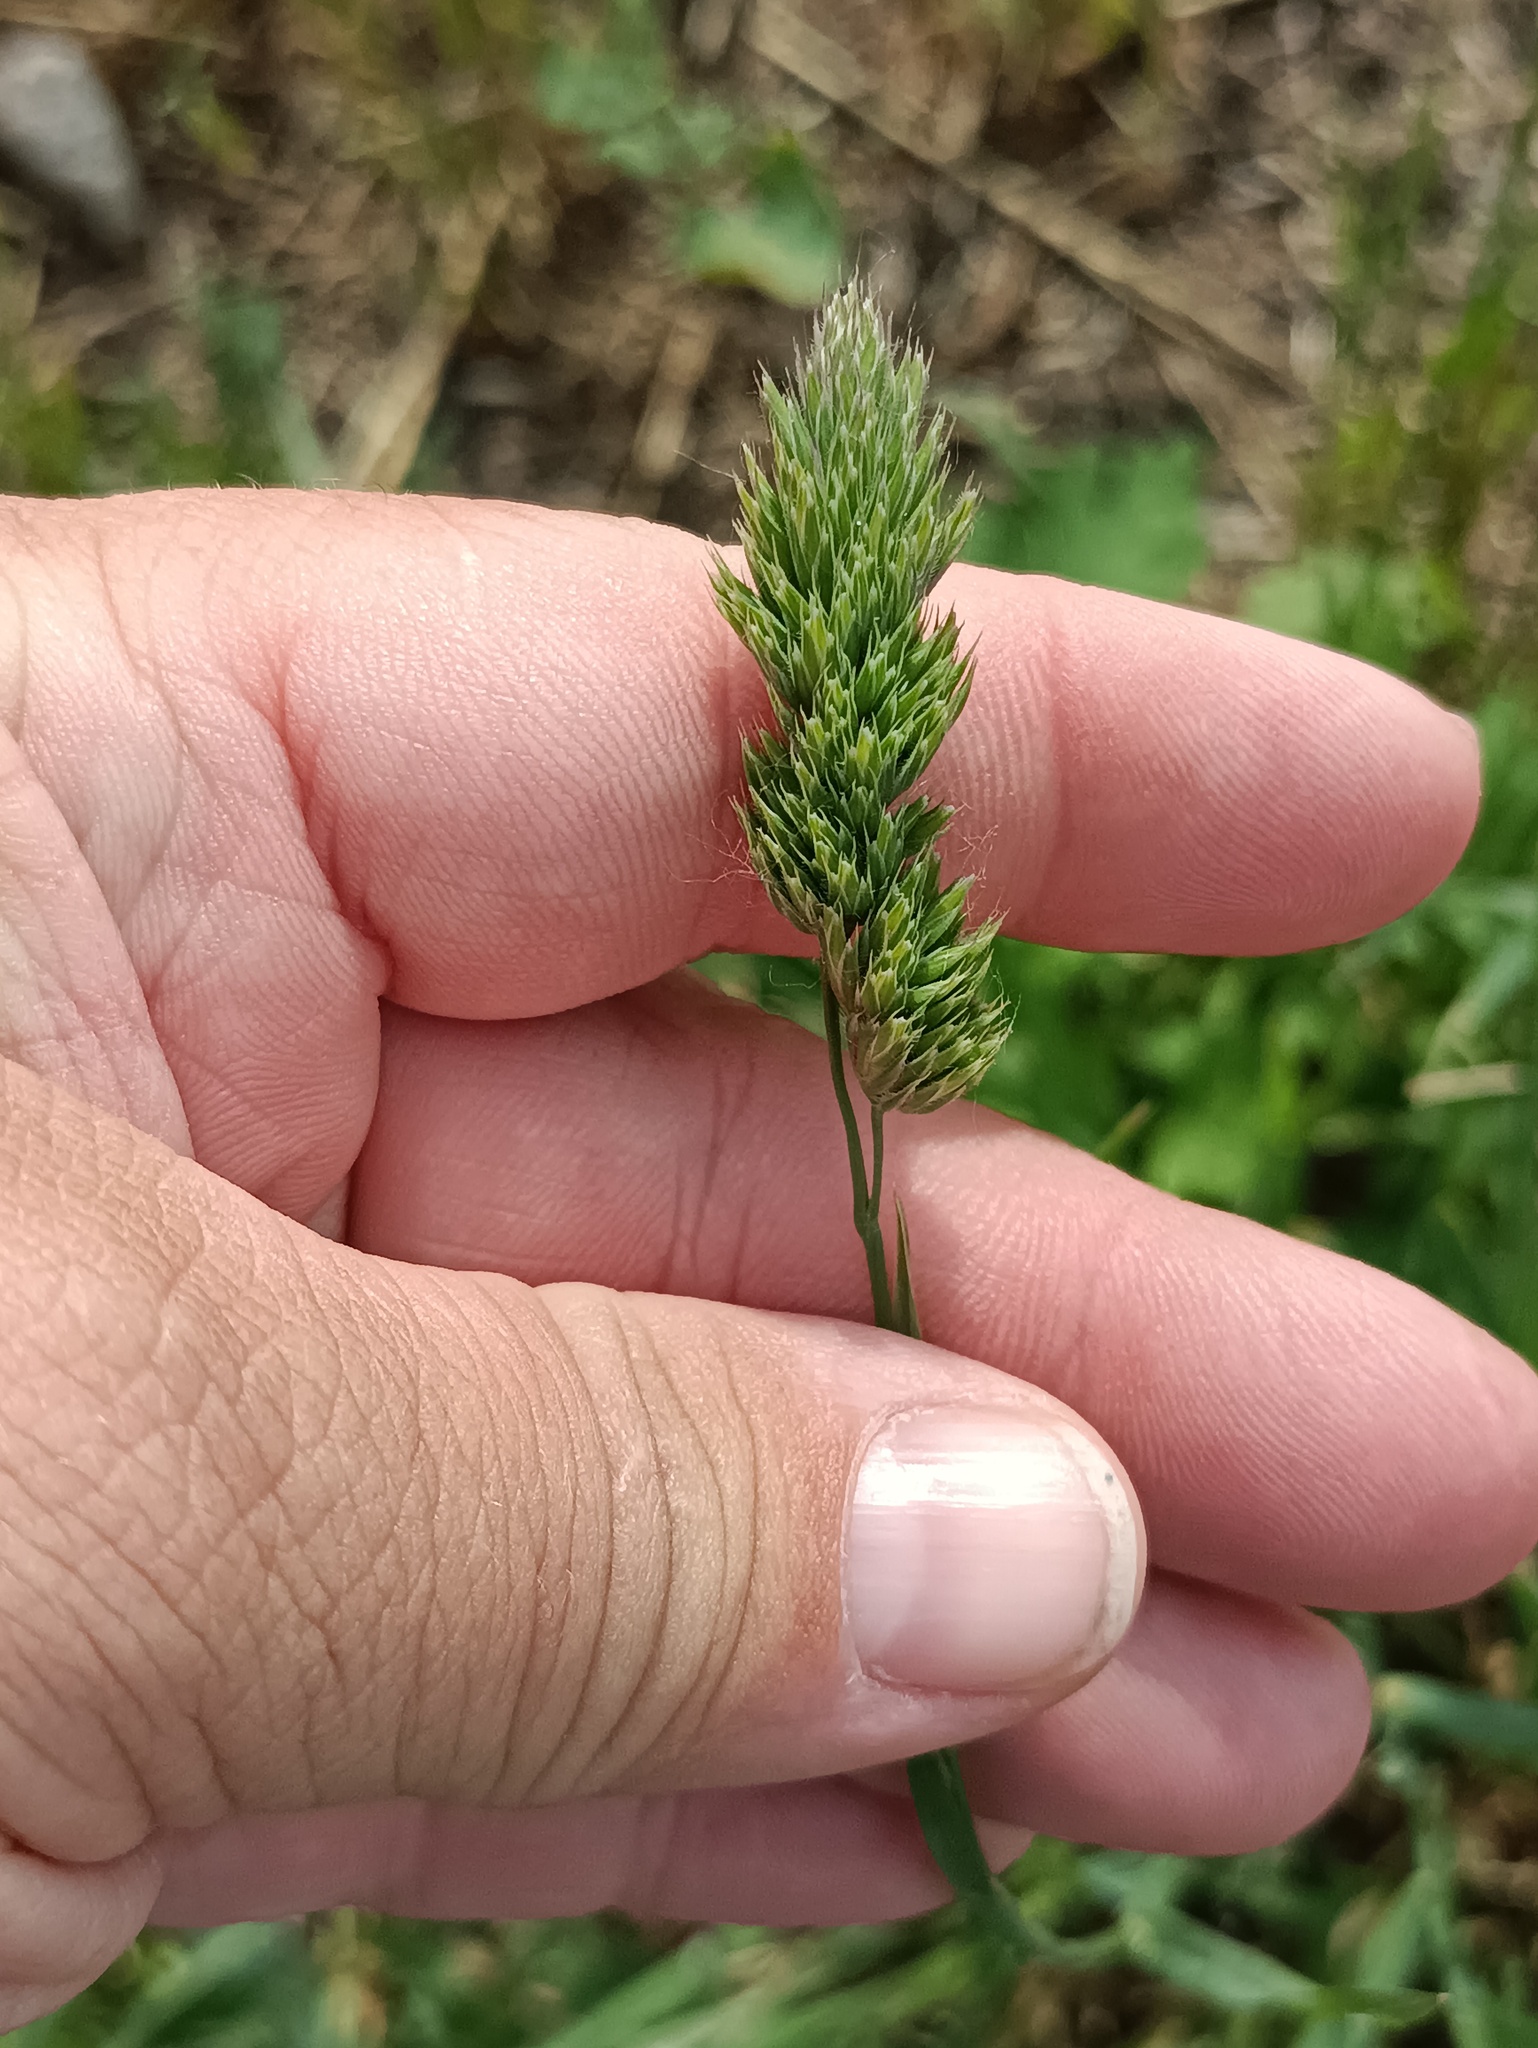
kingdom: Plantae
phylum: Tracheophyta
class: Liliopsida
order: Poales
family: Poaceae
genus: Dactylis
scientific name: Dactylis glomerata
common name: Orchardgrass
